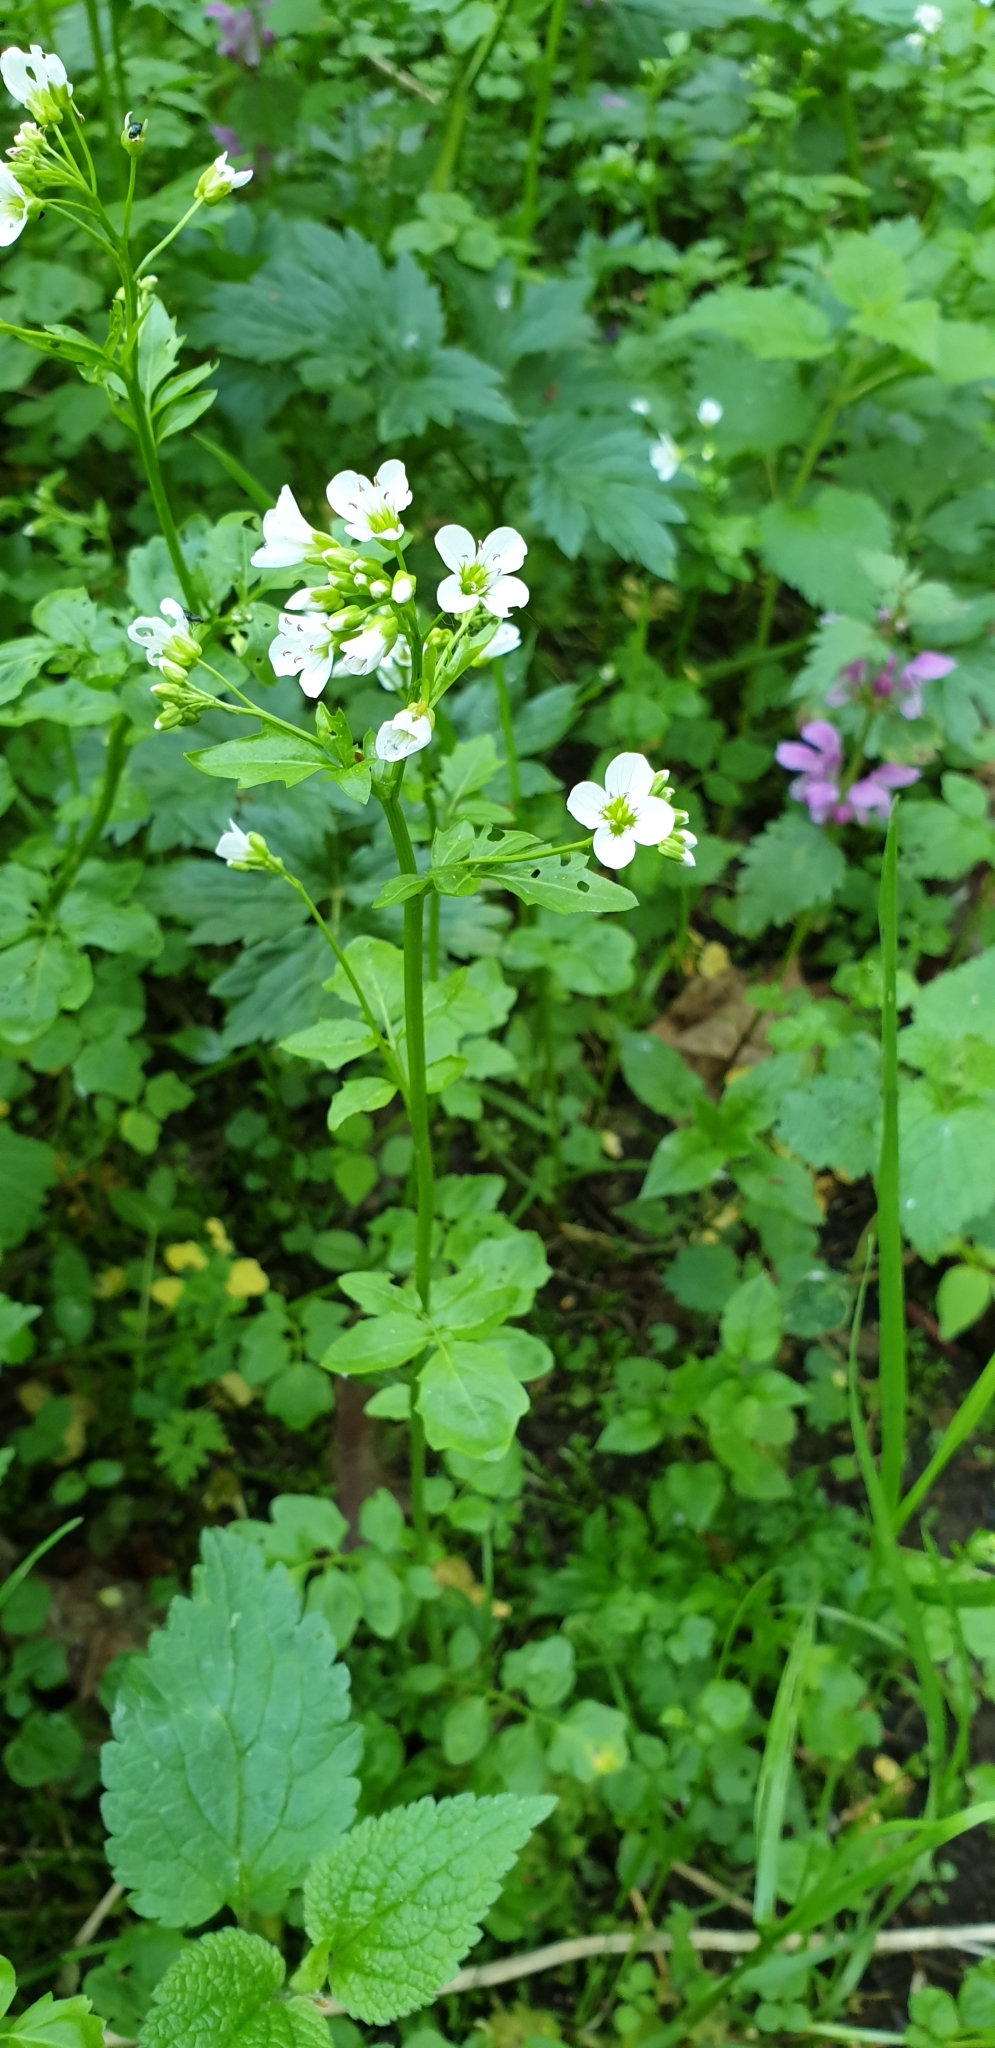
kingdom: Plantae
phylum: Tracheophyta
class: Magnoliopsida
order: Brassicales
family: Brassicaceae
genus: Cardamine
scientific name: Cardamine amara
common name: Large bitter-cress
